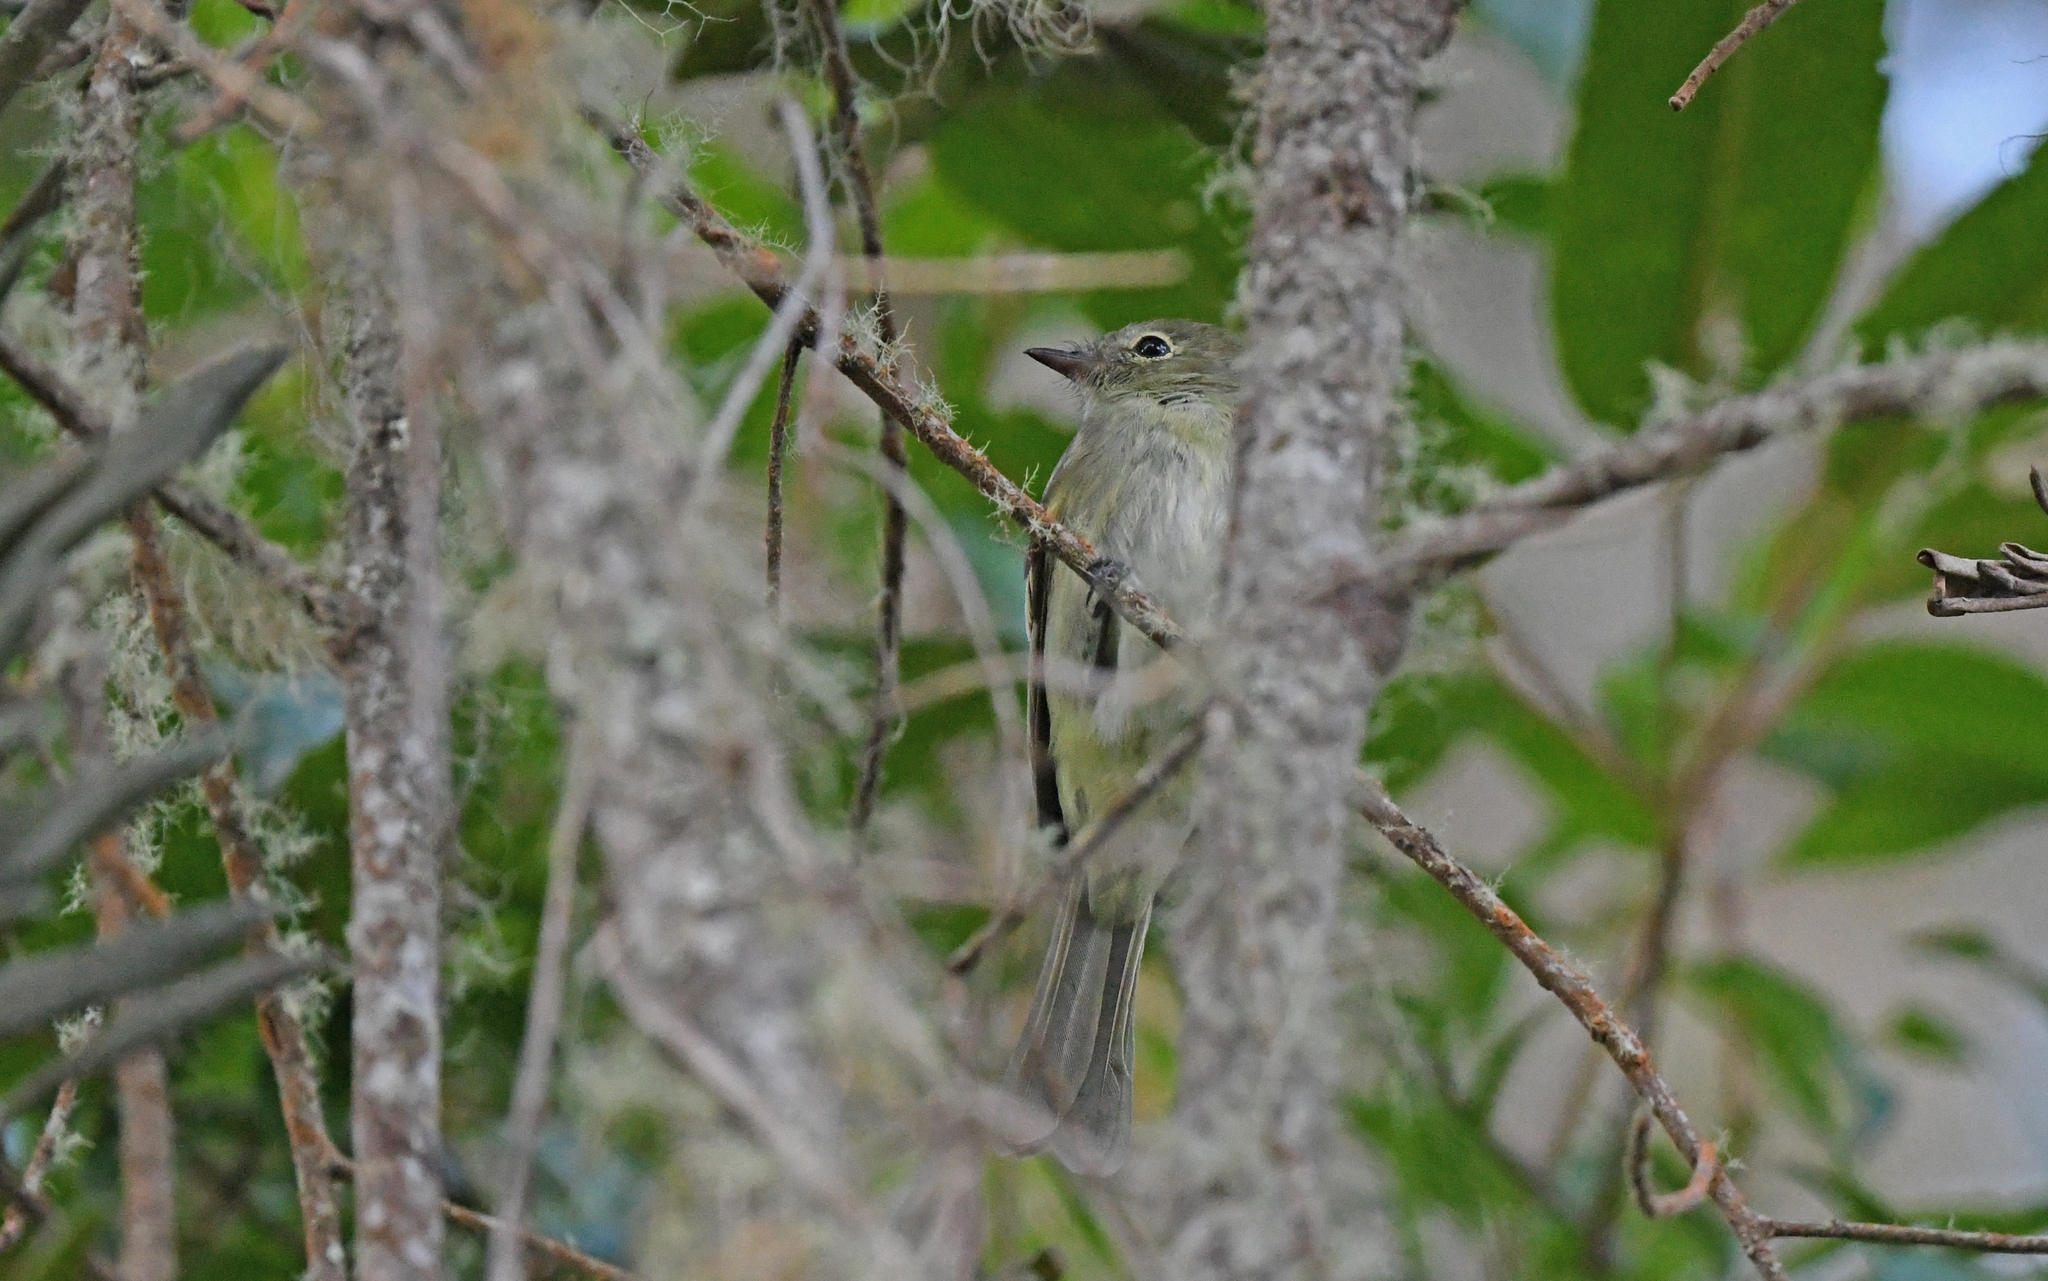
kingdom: Animalia
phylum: Chordata
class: Aves
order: Passeriformes
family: Tyrannidae
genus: Elaenia
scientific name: Elaenia frantzii
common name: Mountain elaenia
